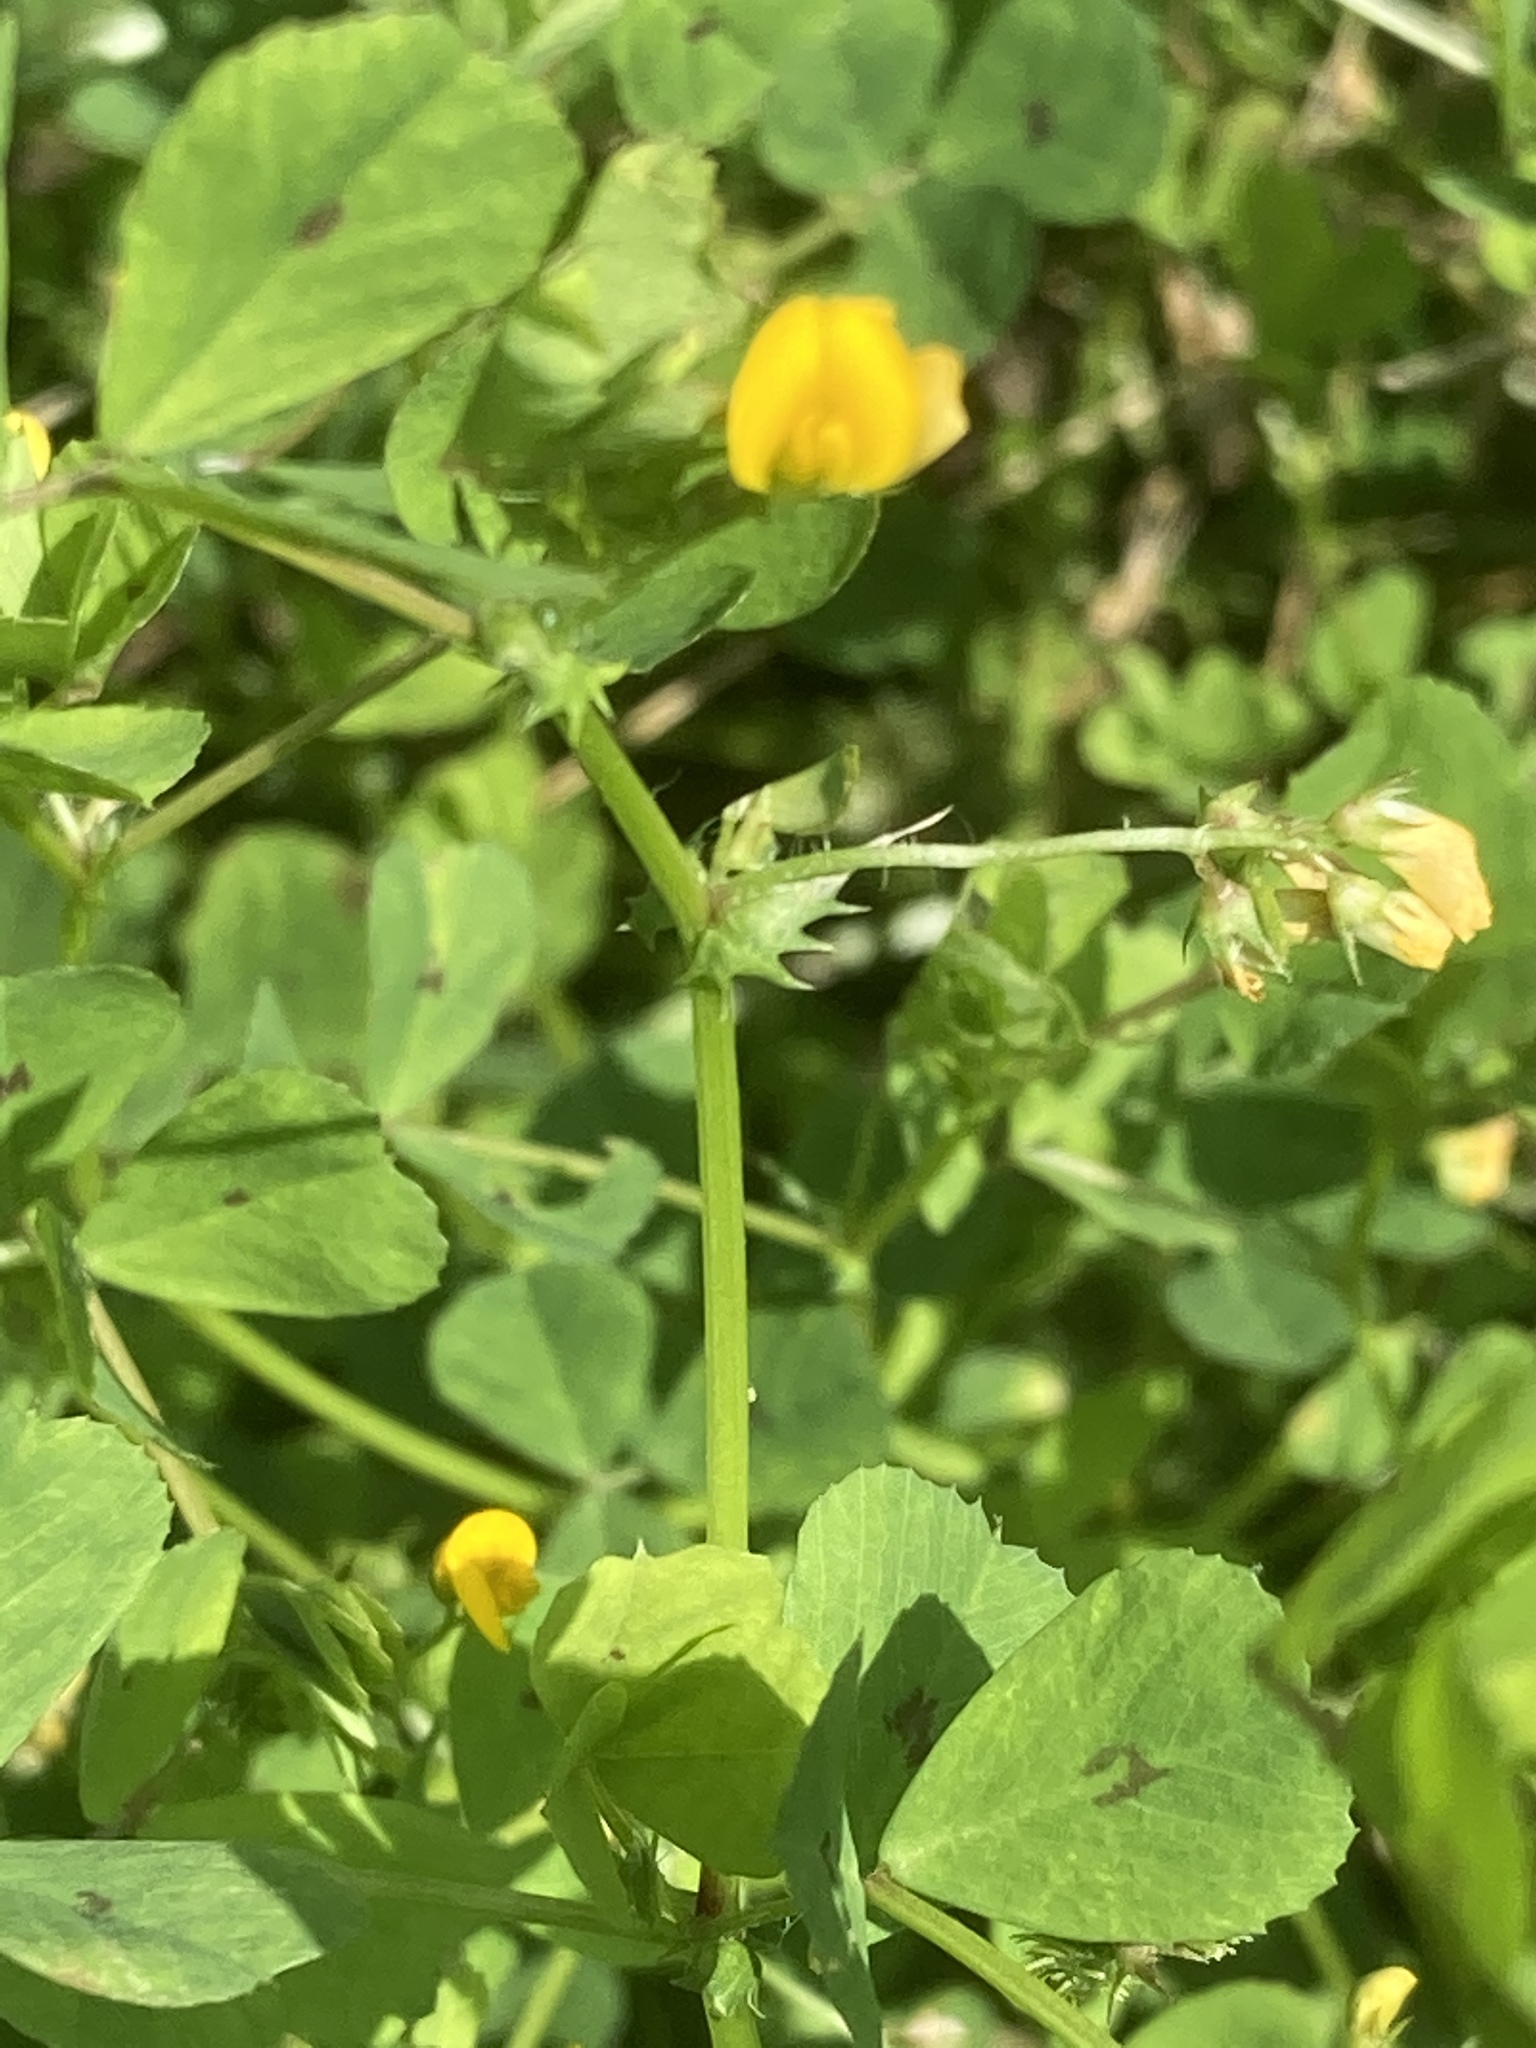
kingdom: Plantae
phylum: Tracheophyta
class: Magnoliopsida
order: Fabales
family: Fabaceae
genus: Medicago
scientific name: Medicago arabica
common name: Spotted medick
